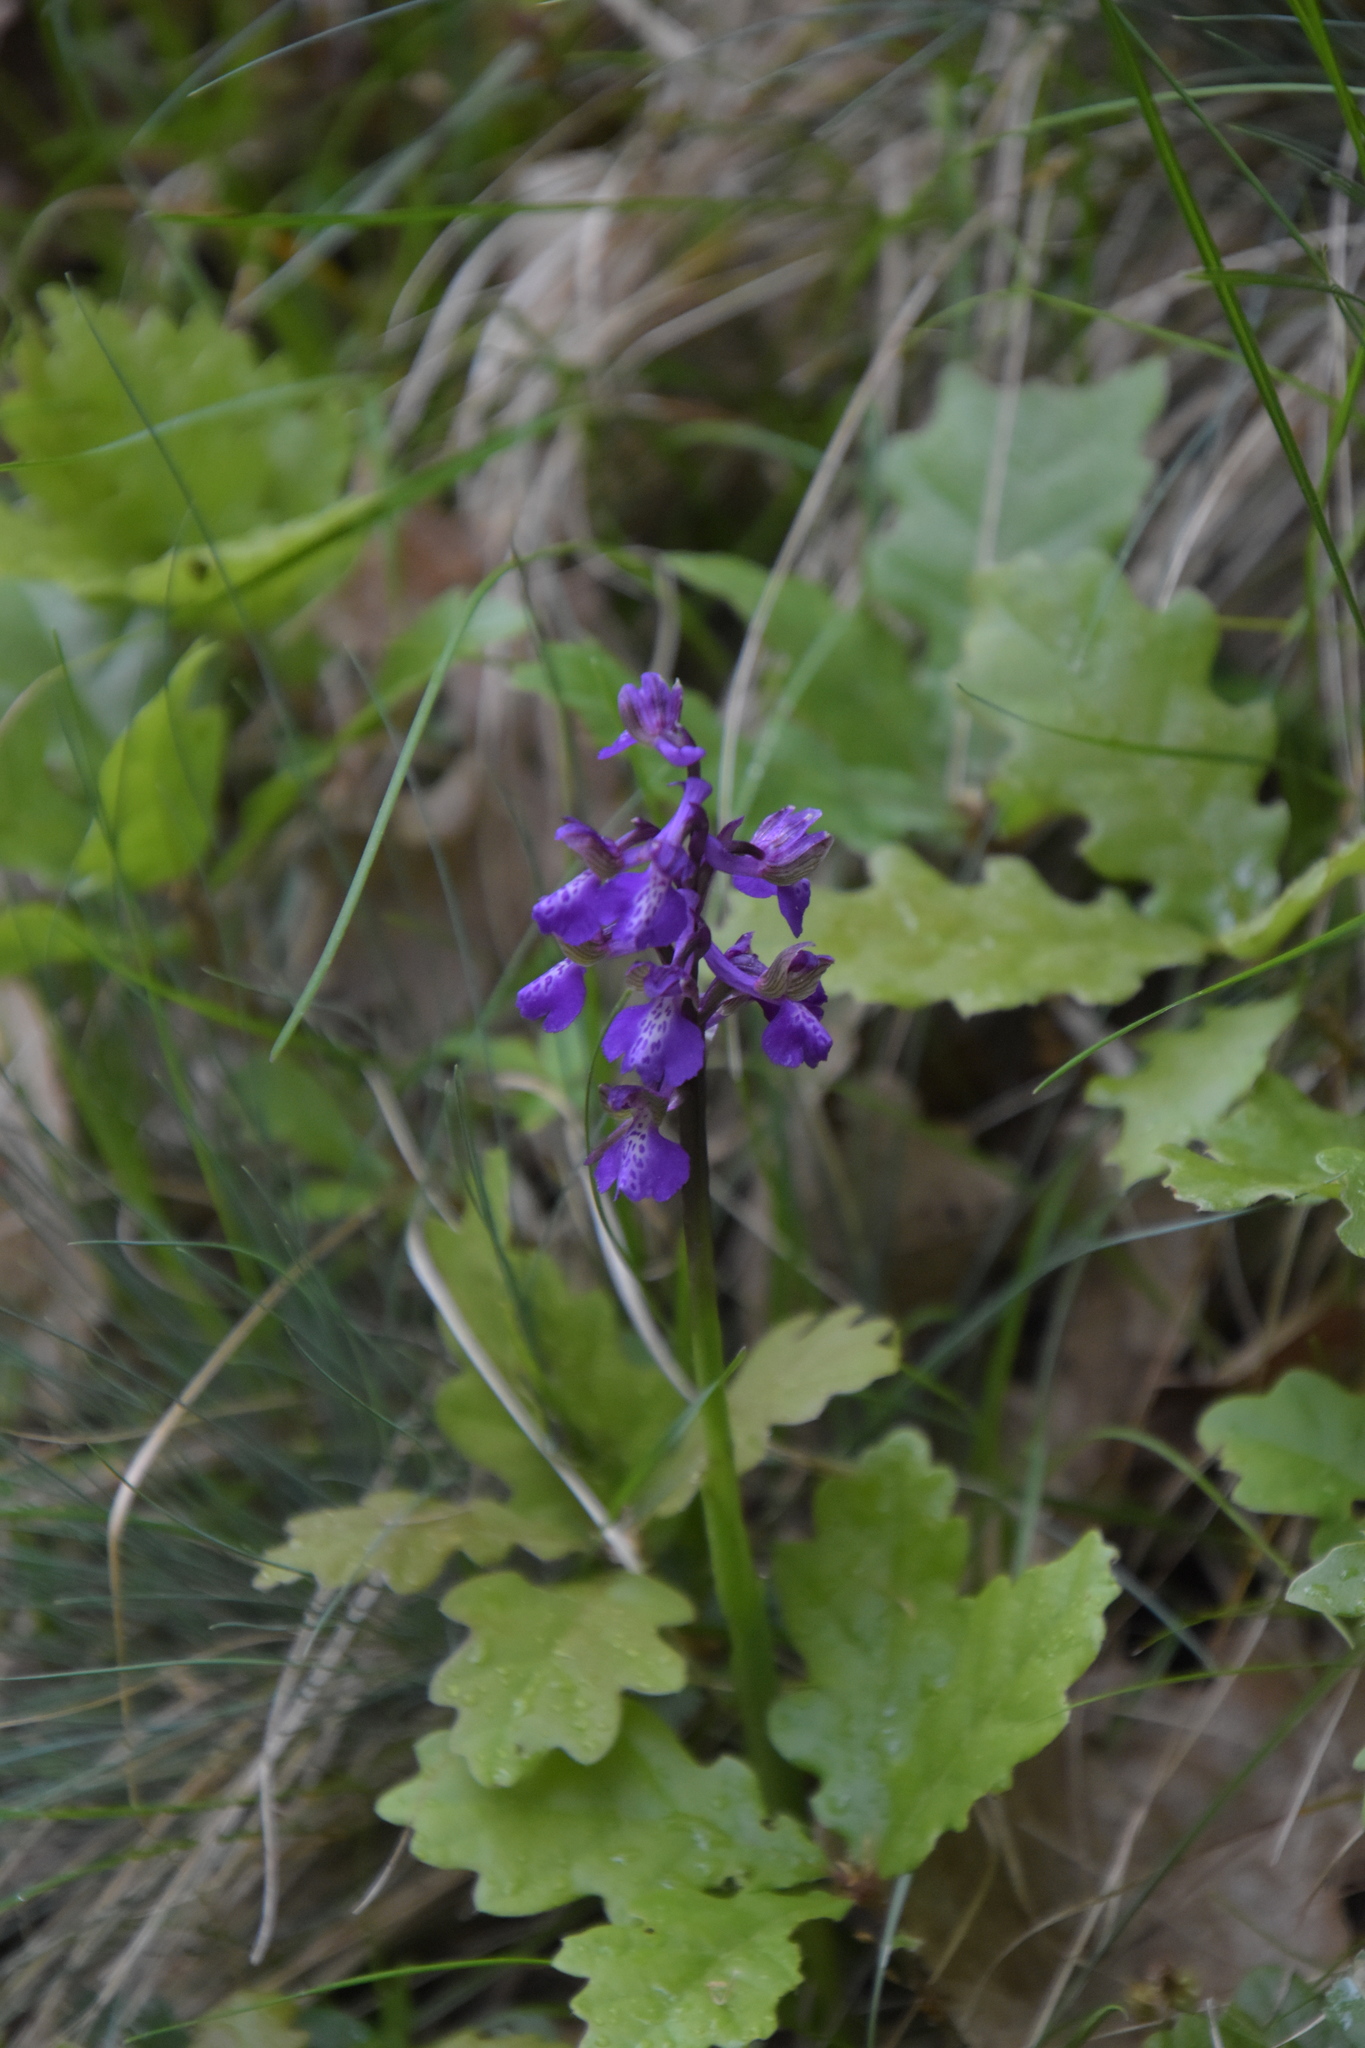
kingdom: Plantae
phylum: Tracheophyta
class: Liliopsida
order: Asparagales
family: Orchidaceae
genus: Anacamptis
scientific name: Anacamptis morio
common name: Green-winged orchid
